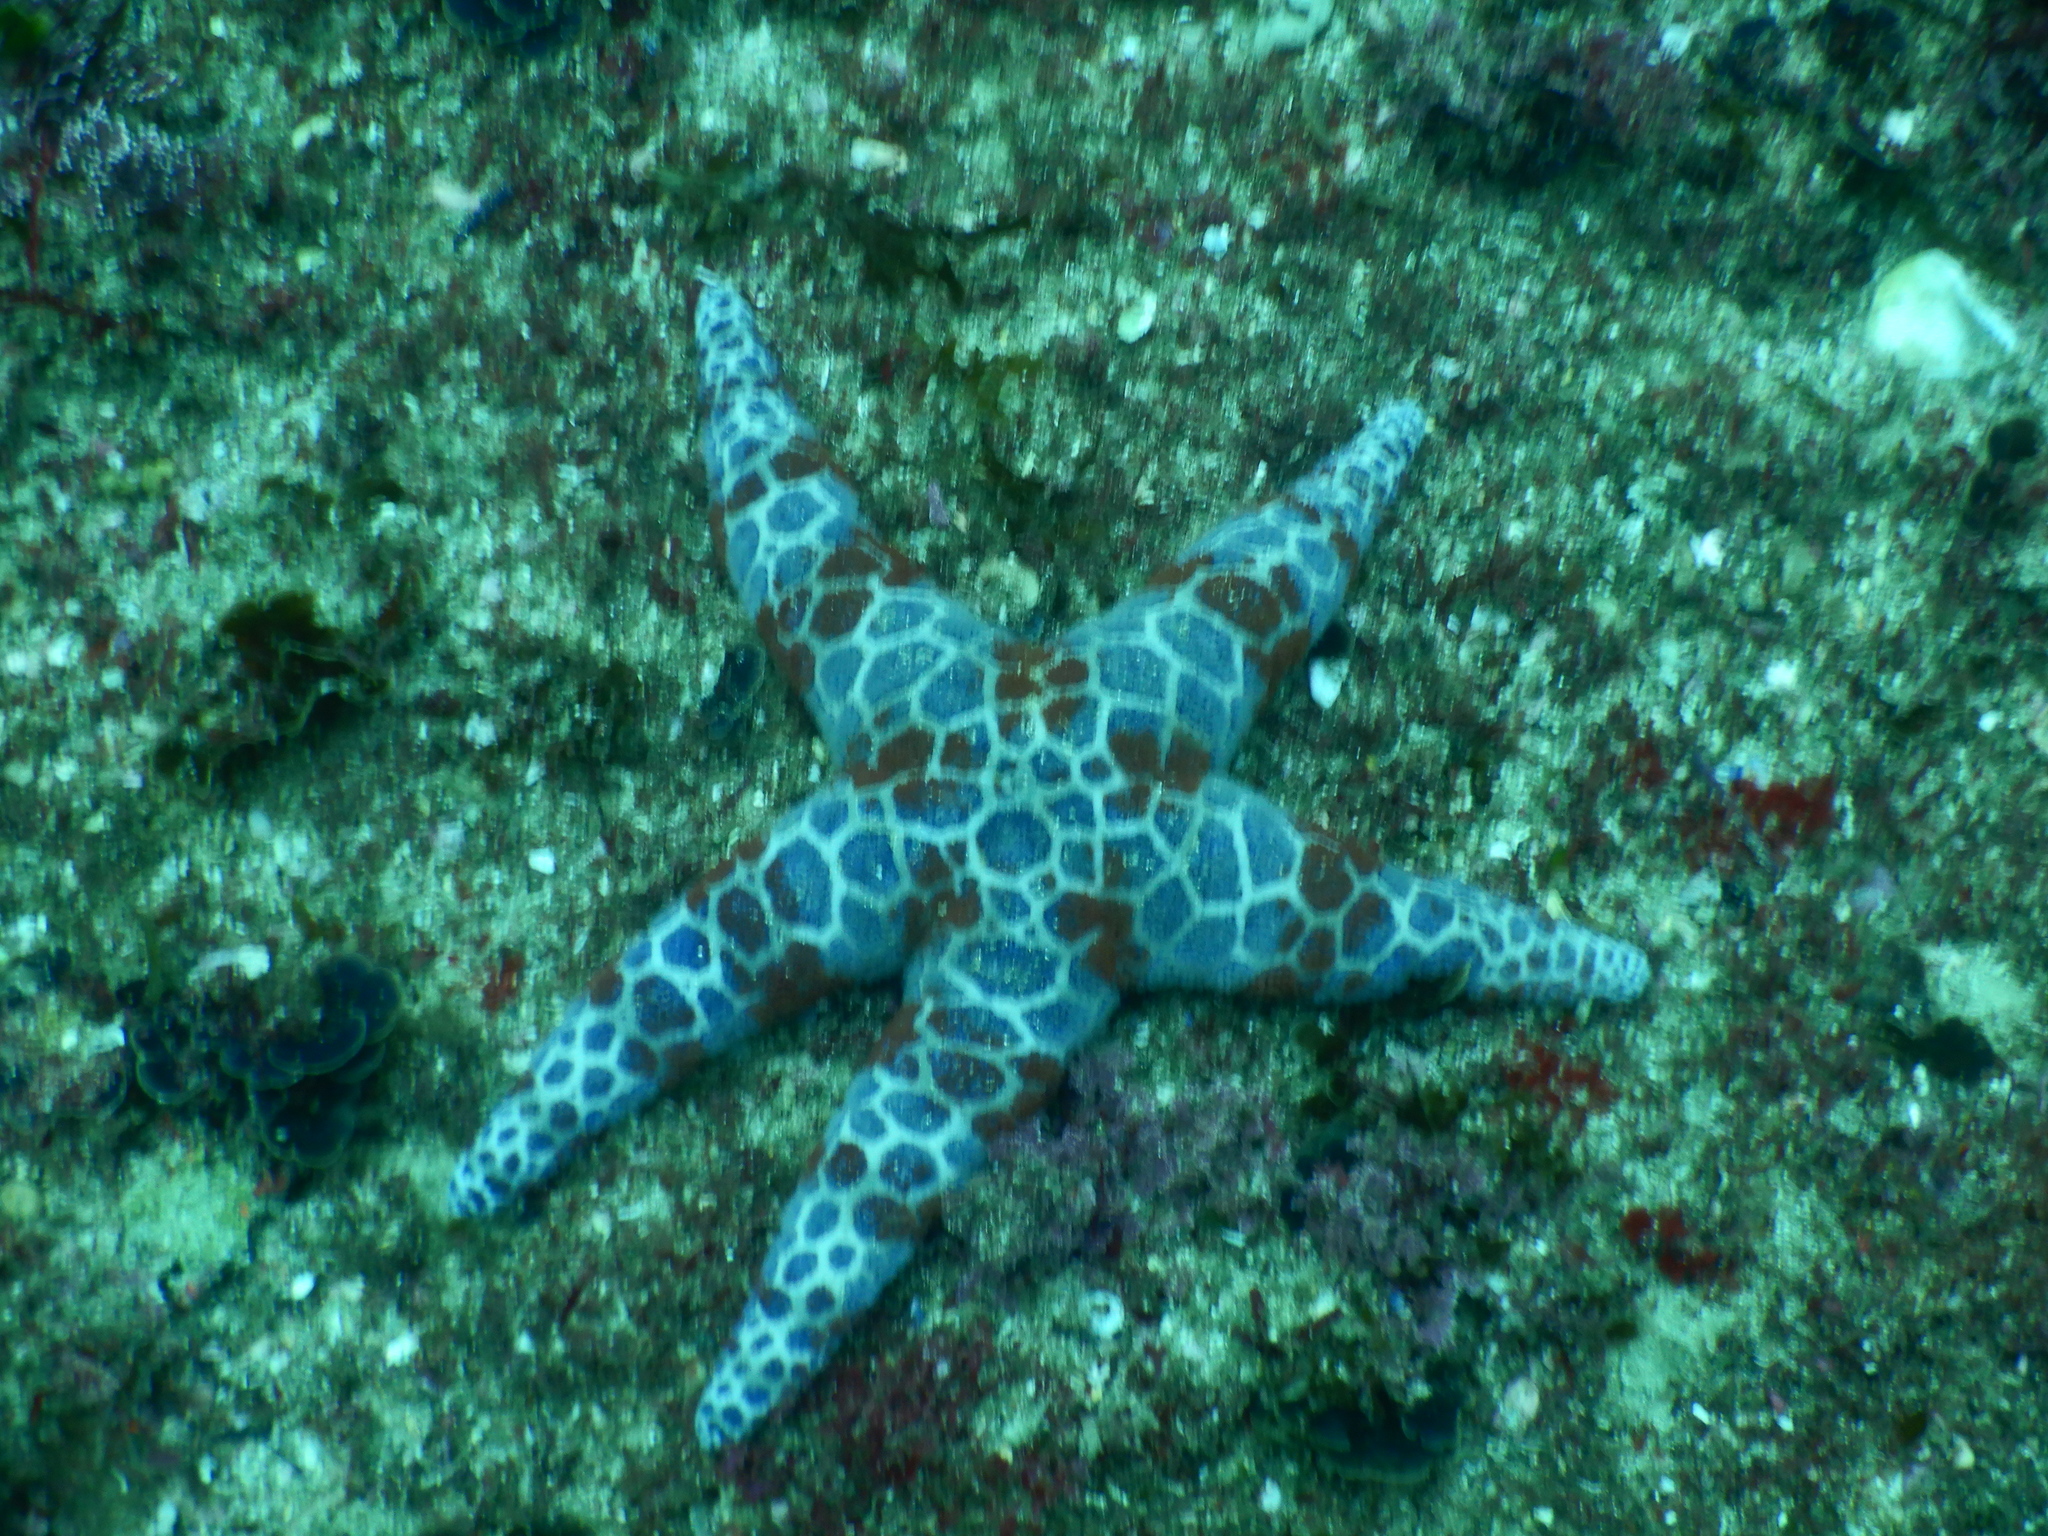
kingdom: Animalia
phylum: Echinodermata
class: Asteroidea
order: Spinulosida
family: Echinasteridae
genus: Plectaster
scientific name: Plectaster decanus
